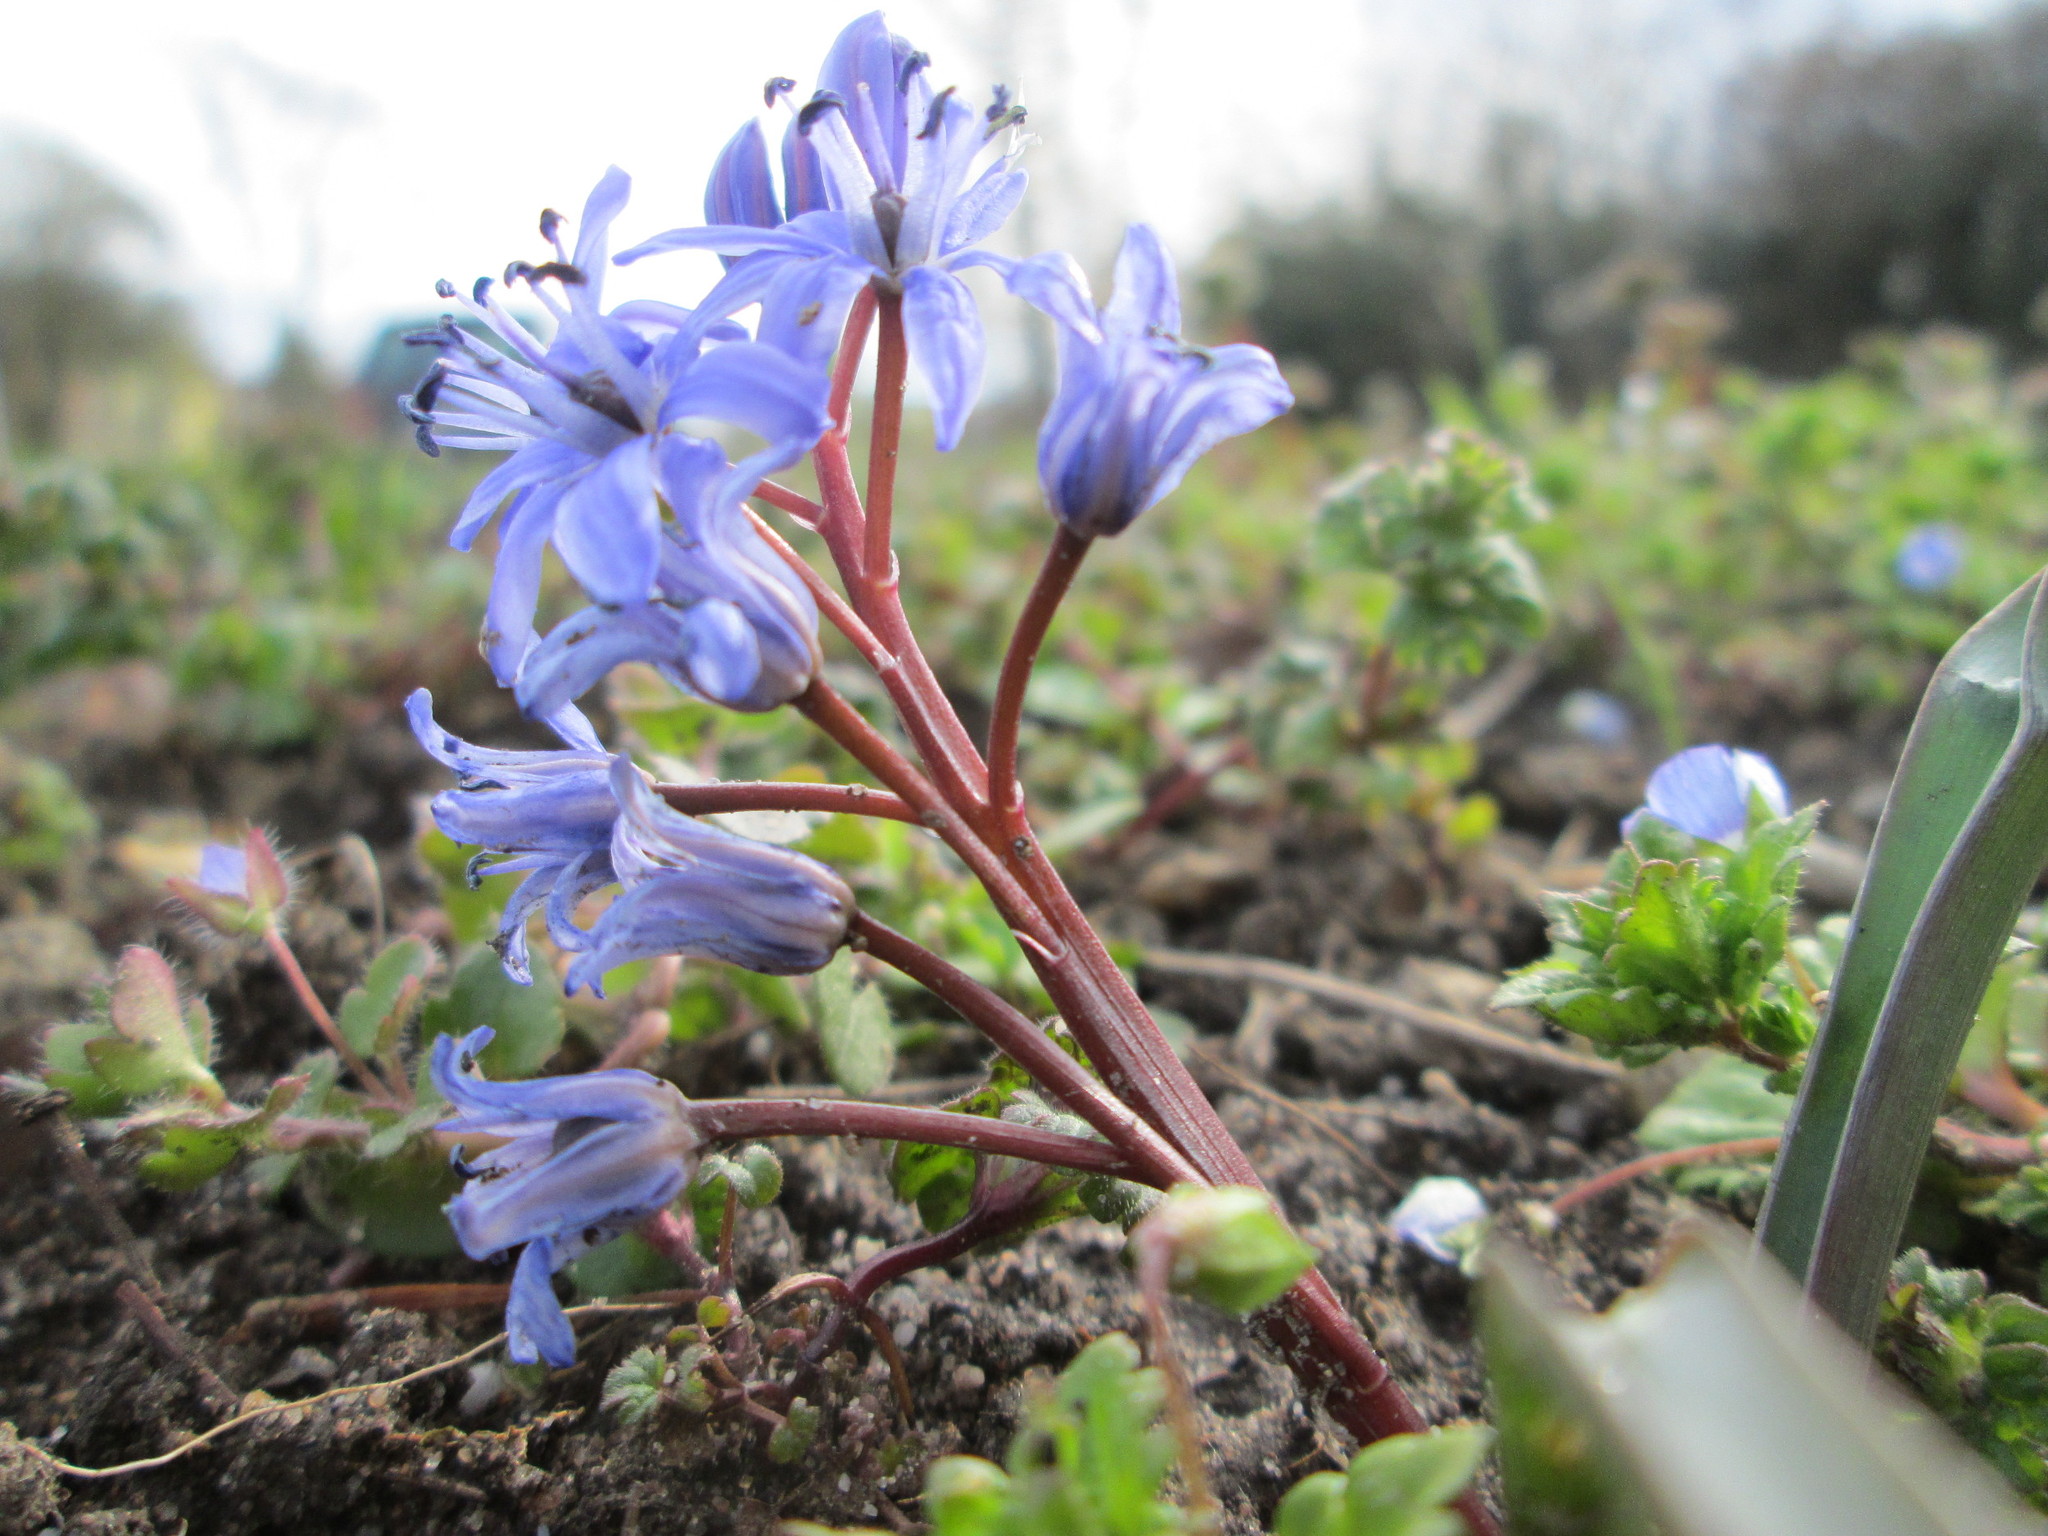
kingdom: Plantae
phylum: Tracheophyta
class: Liliopsida
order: Asparagales
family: Asparagaceae
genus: Scilla
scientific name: Scilla bifolia
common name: Alpine squill
